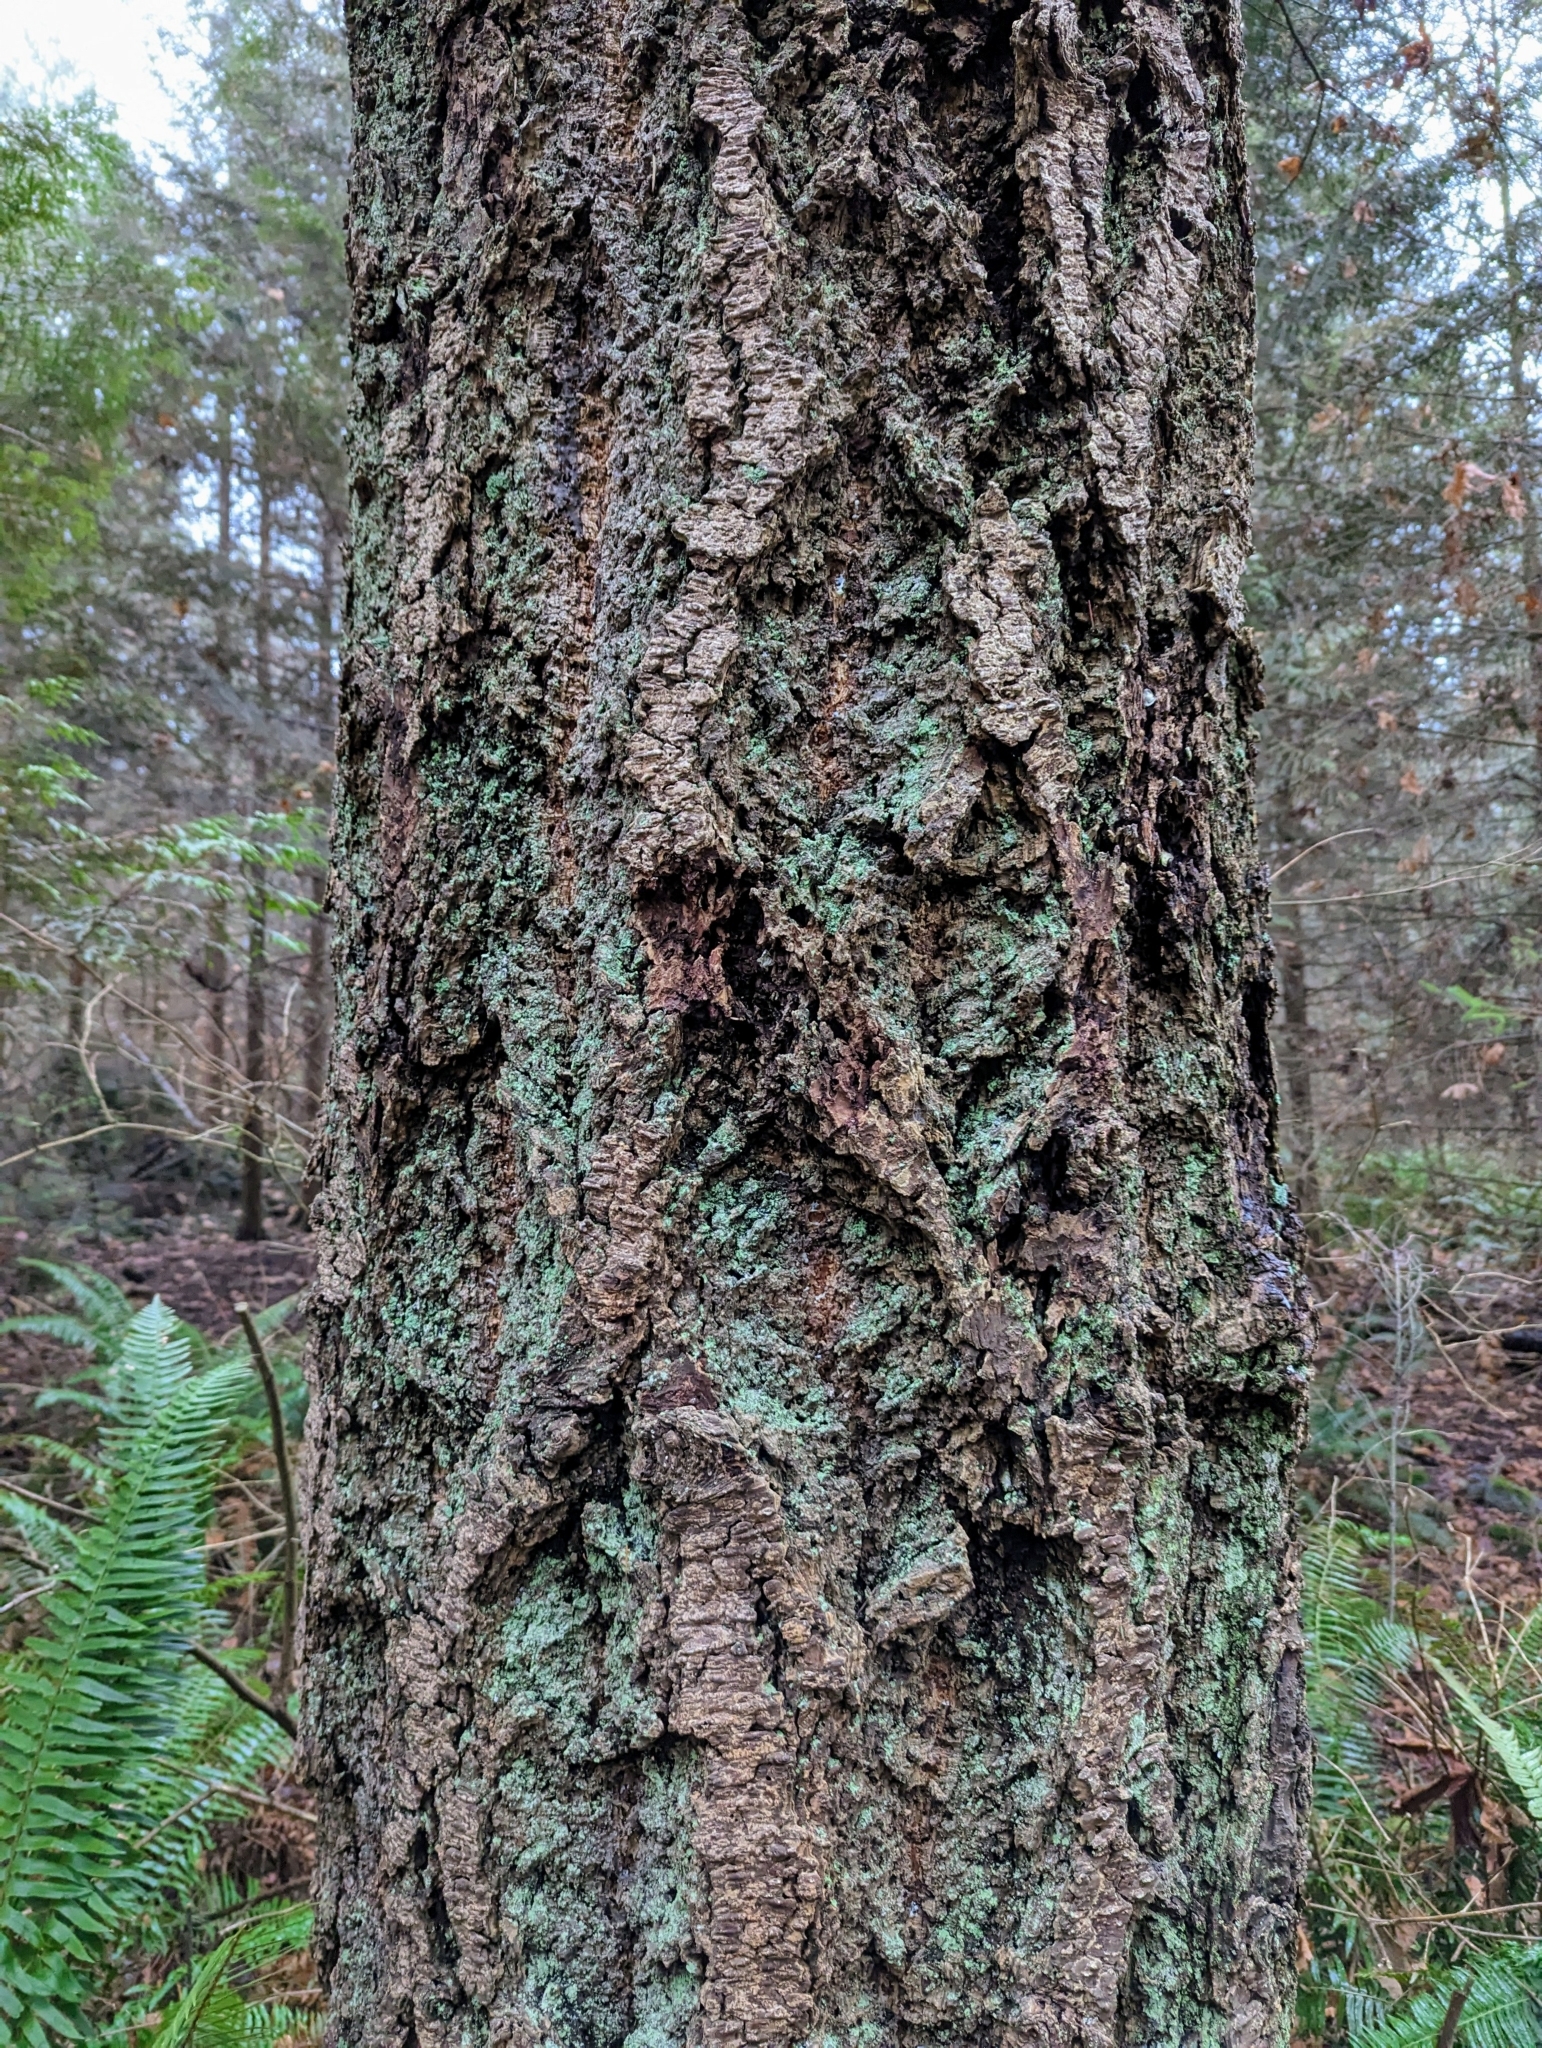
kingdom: Plantae
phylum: Tracheophyta
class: Pinopsida
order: Pinales
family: Pinaceae
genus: Pseudotsuga
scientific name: Pseudotsuga menziesii
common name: Douglas fir
